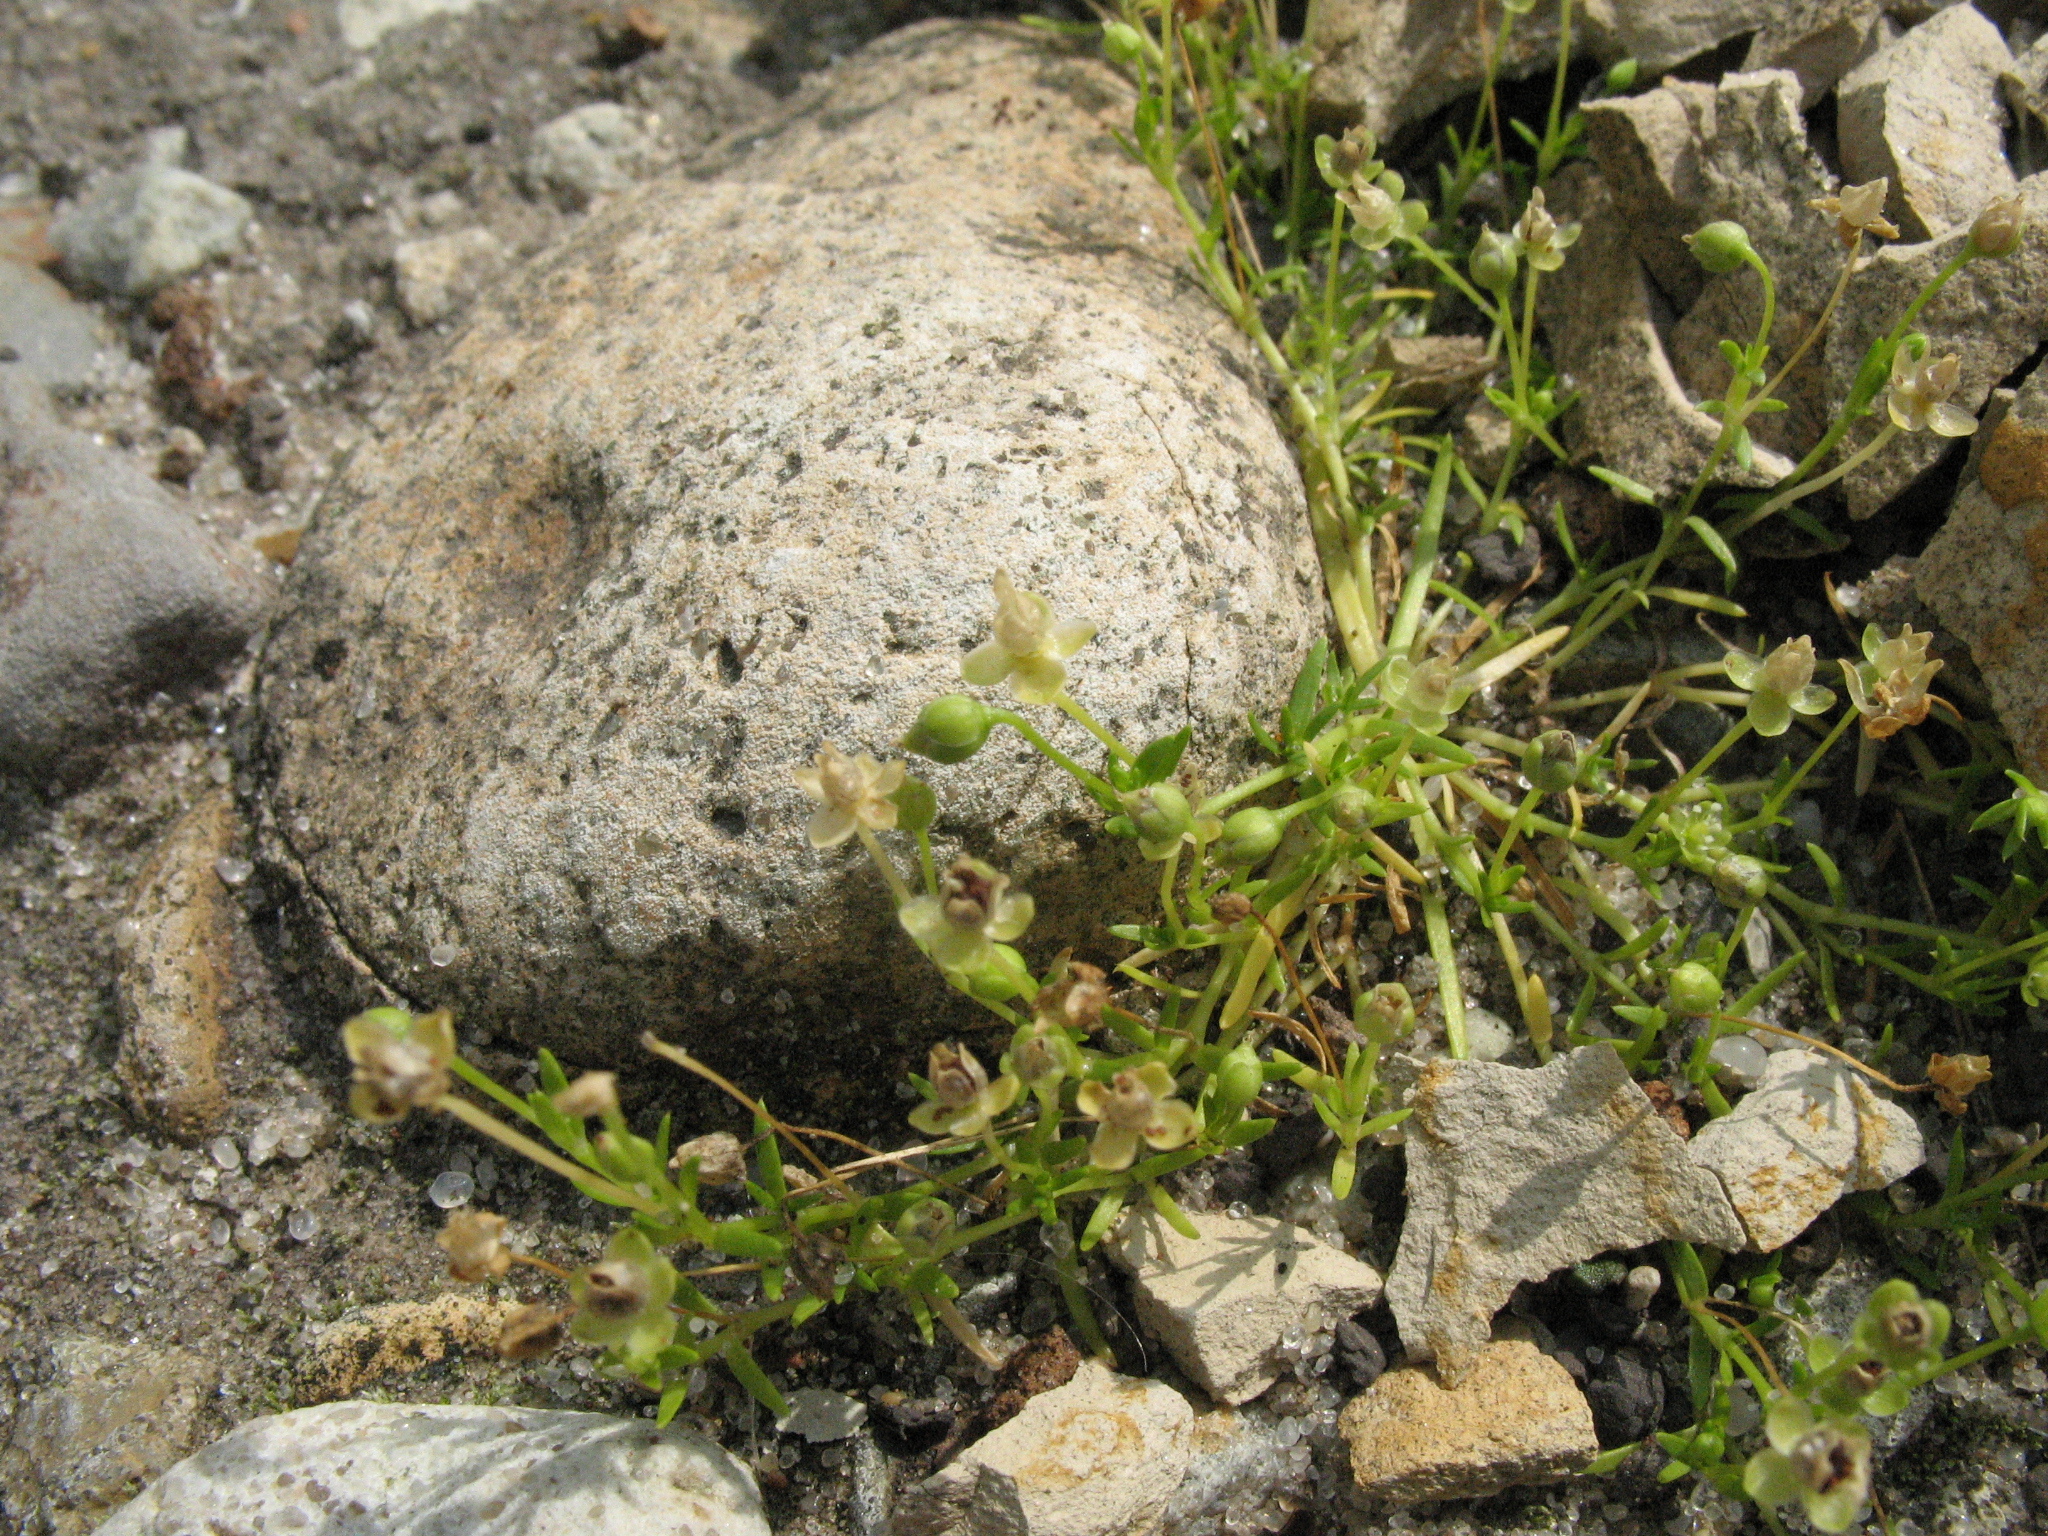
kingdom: Plantae
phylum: Tracheophyta
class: Magnoliopsida
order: Caryophyllales
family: Caryophyllaceae
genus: Sagina
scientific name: Sagina procumbens
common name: Procumbent pearlwort
